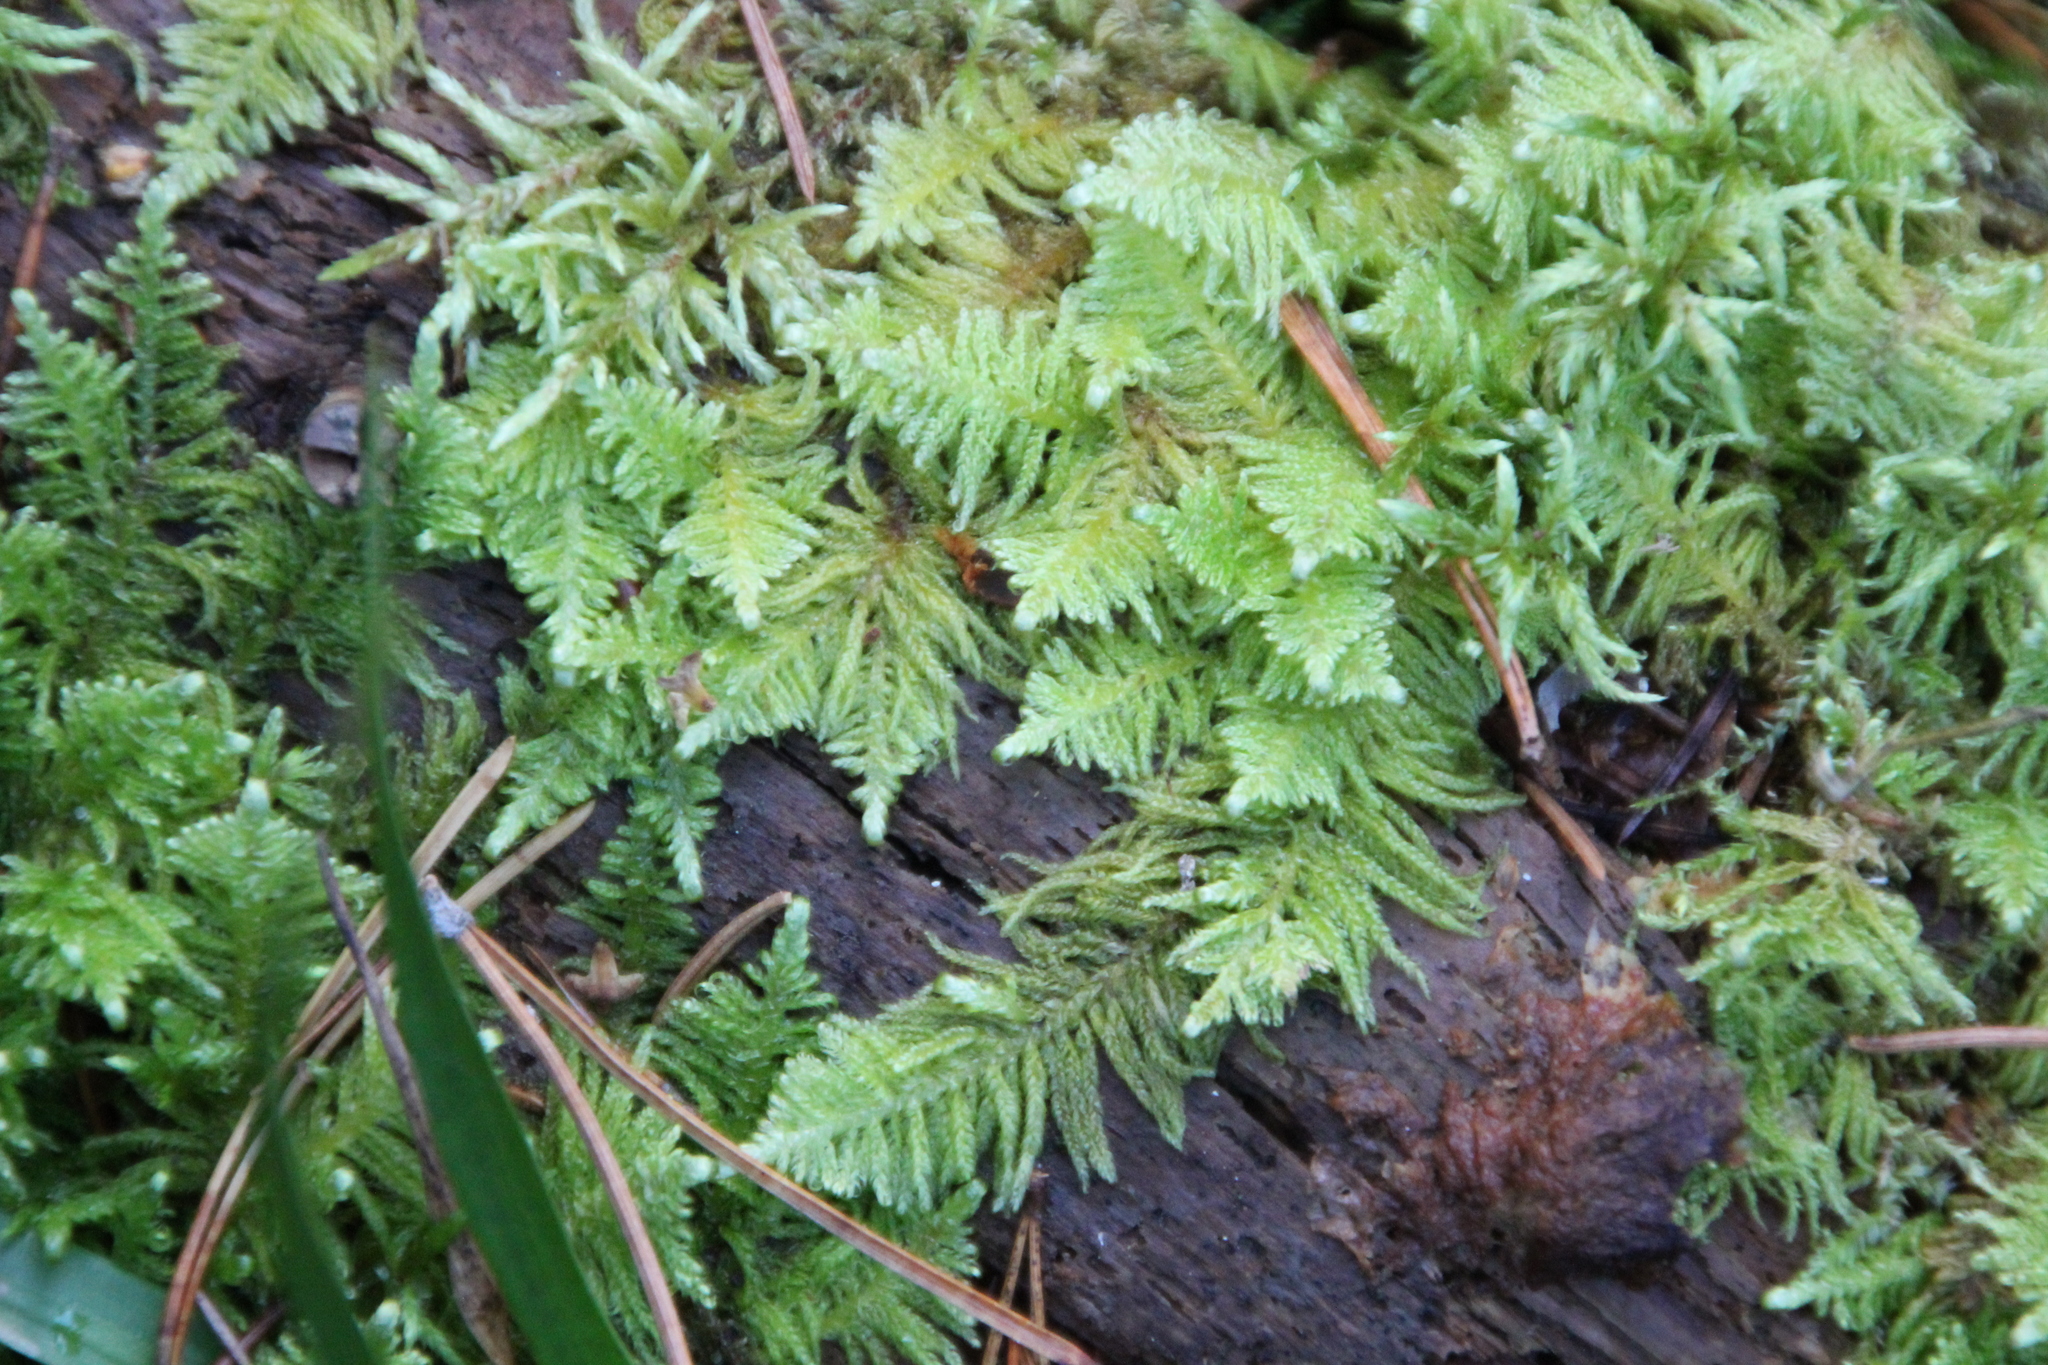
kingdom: Plantae
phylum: Bryophyta
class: Bryopsida
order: Hypnales
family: Pylaisiaceae
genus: Ptilium
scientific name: Ptilium crista-castrensis
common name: Knight's plume moss
